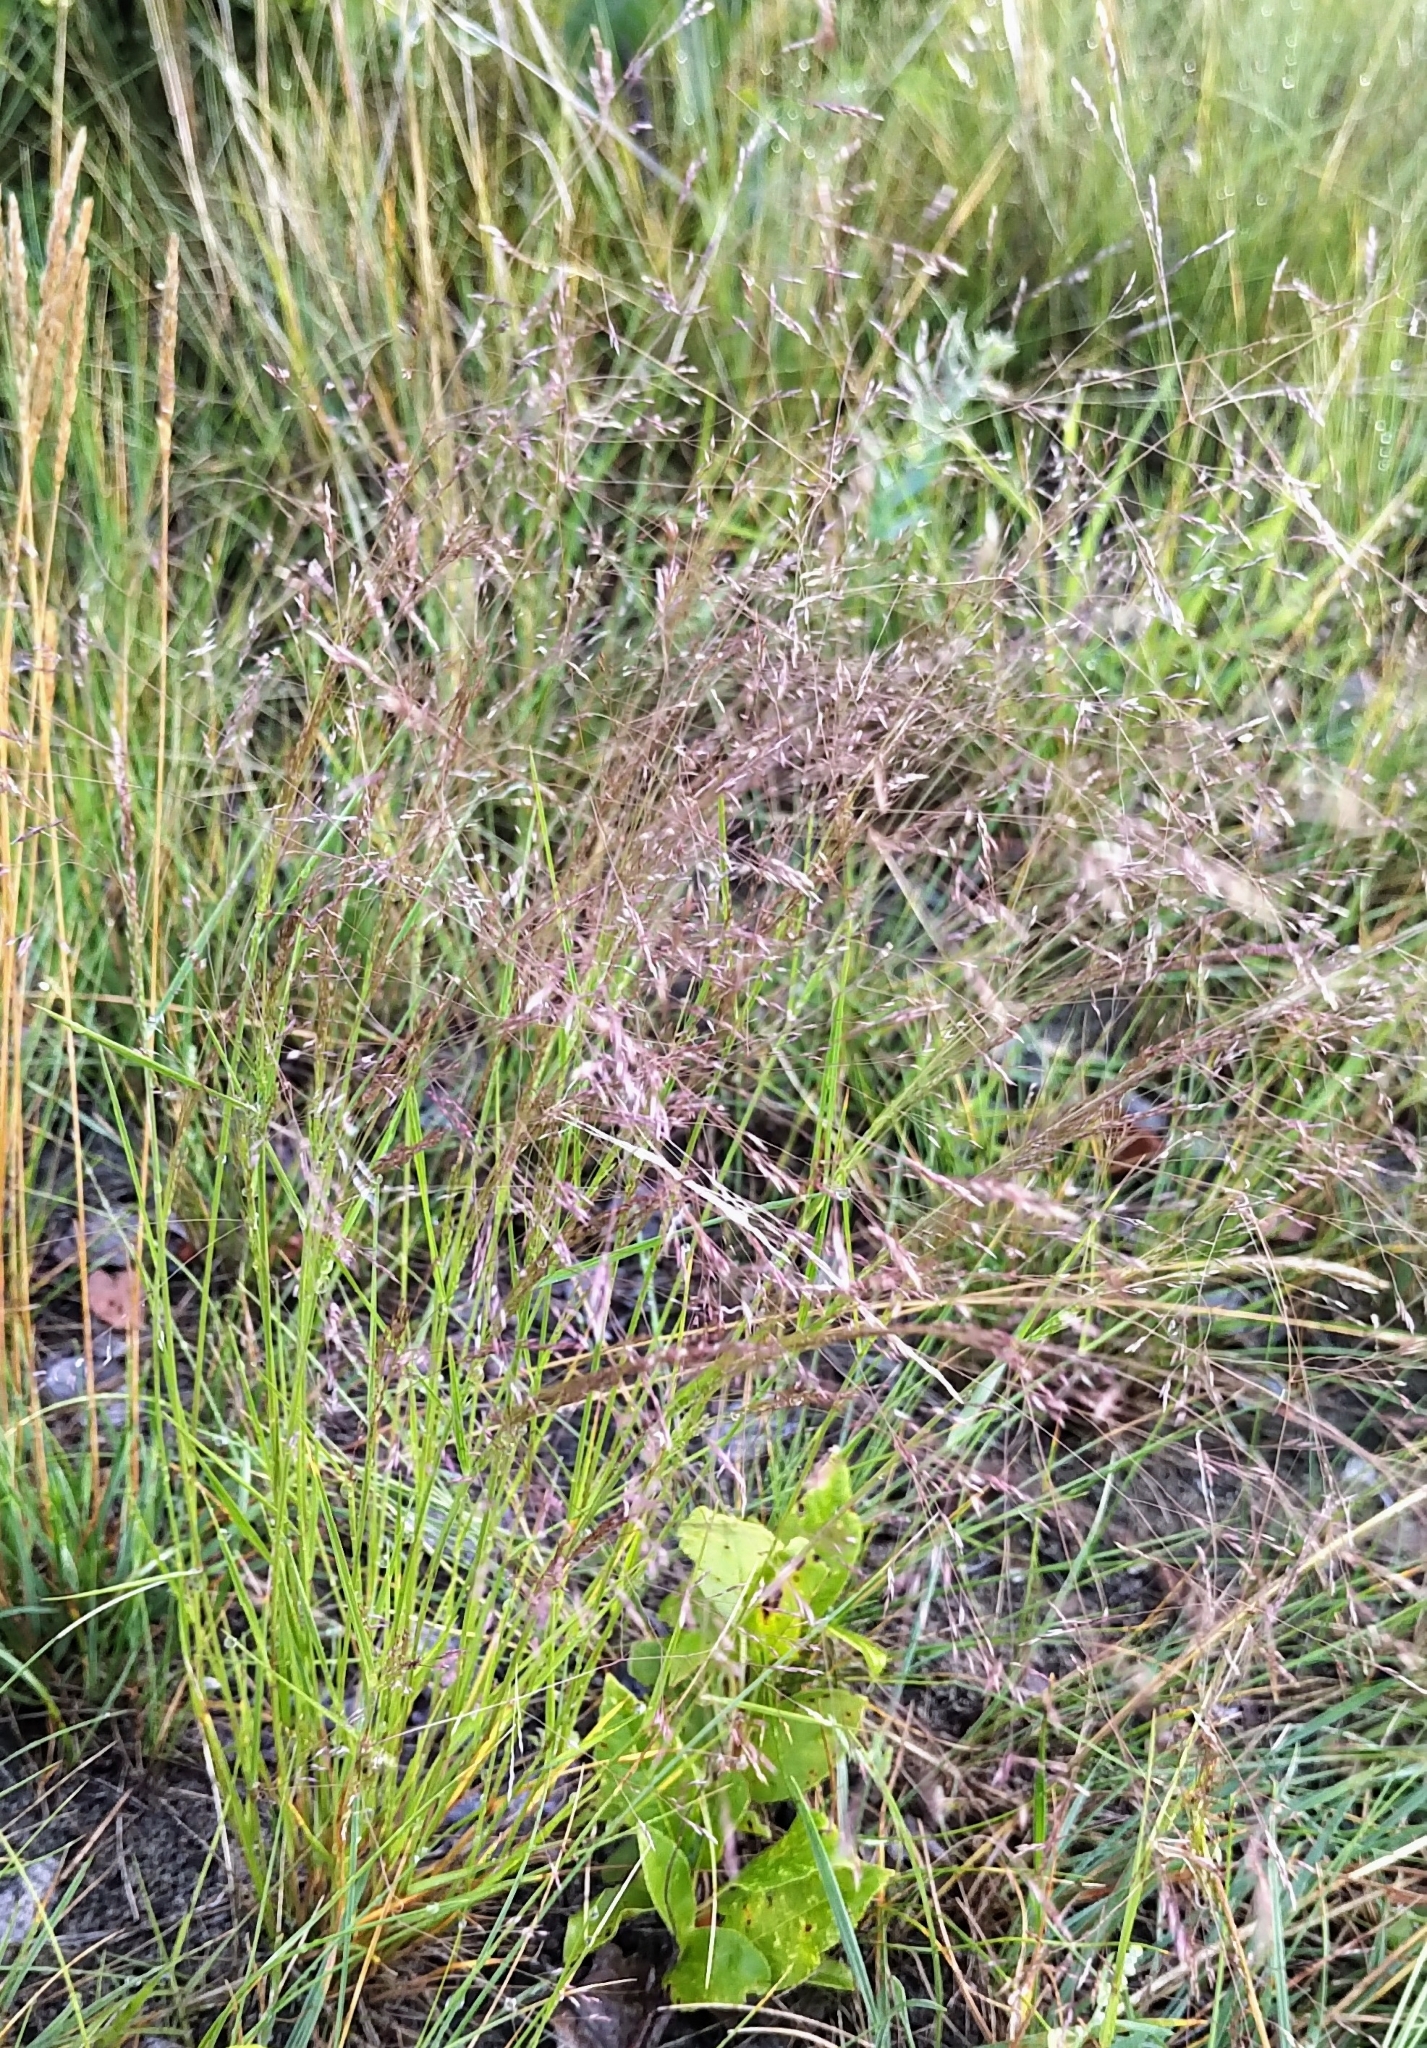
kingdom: Plantae
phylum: Tracheophyta
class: Liliopsida
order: Poales
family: Poaceae
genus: Agrostis
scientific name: Agrostis scabra
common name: Rough bent
